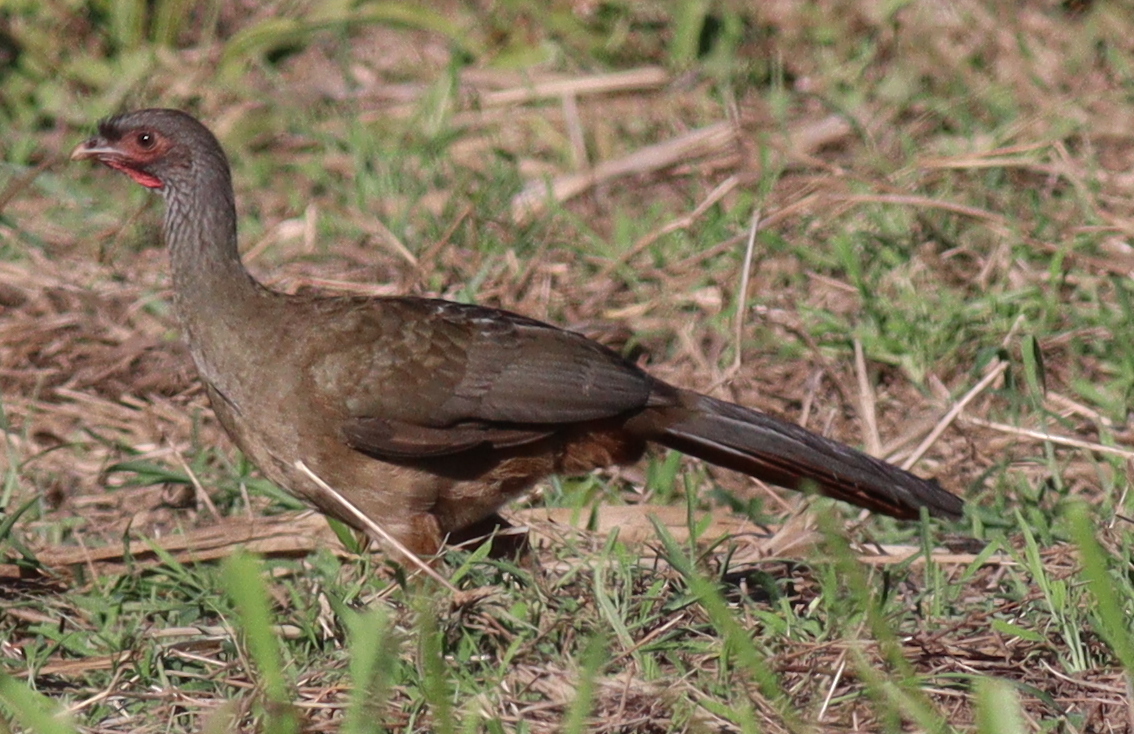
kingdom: Animalia
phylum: Chordata
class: Aves
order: Galliformes
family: Cracidae
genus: Ortalis
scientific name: Ortalis canicollis
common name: Chaco chachalaca
